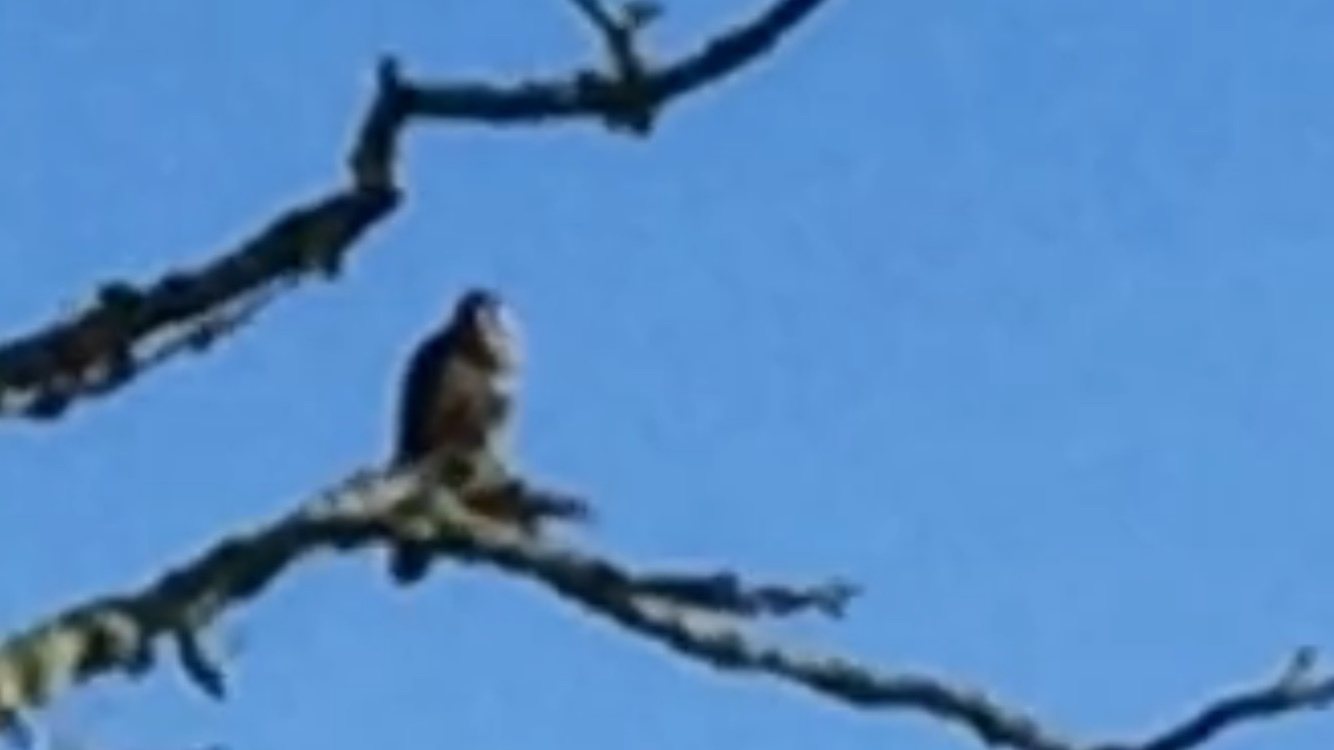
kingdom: Animalia
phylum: Chordata
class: Aves
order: Falconiformes
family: Falconidae
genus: Falco
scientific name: Falco rusticolus
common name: Gyrfalcon
